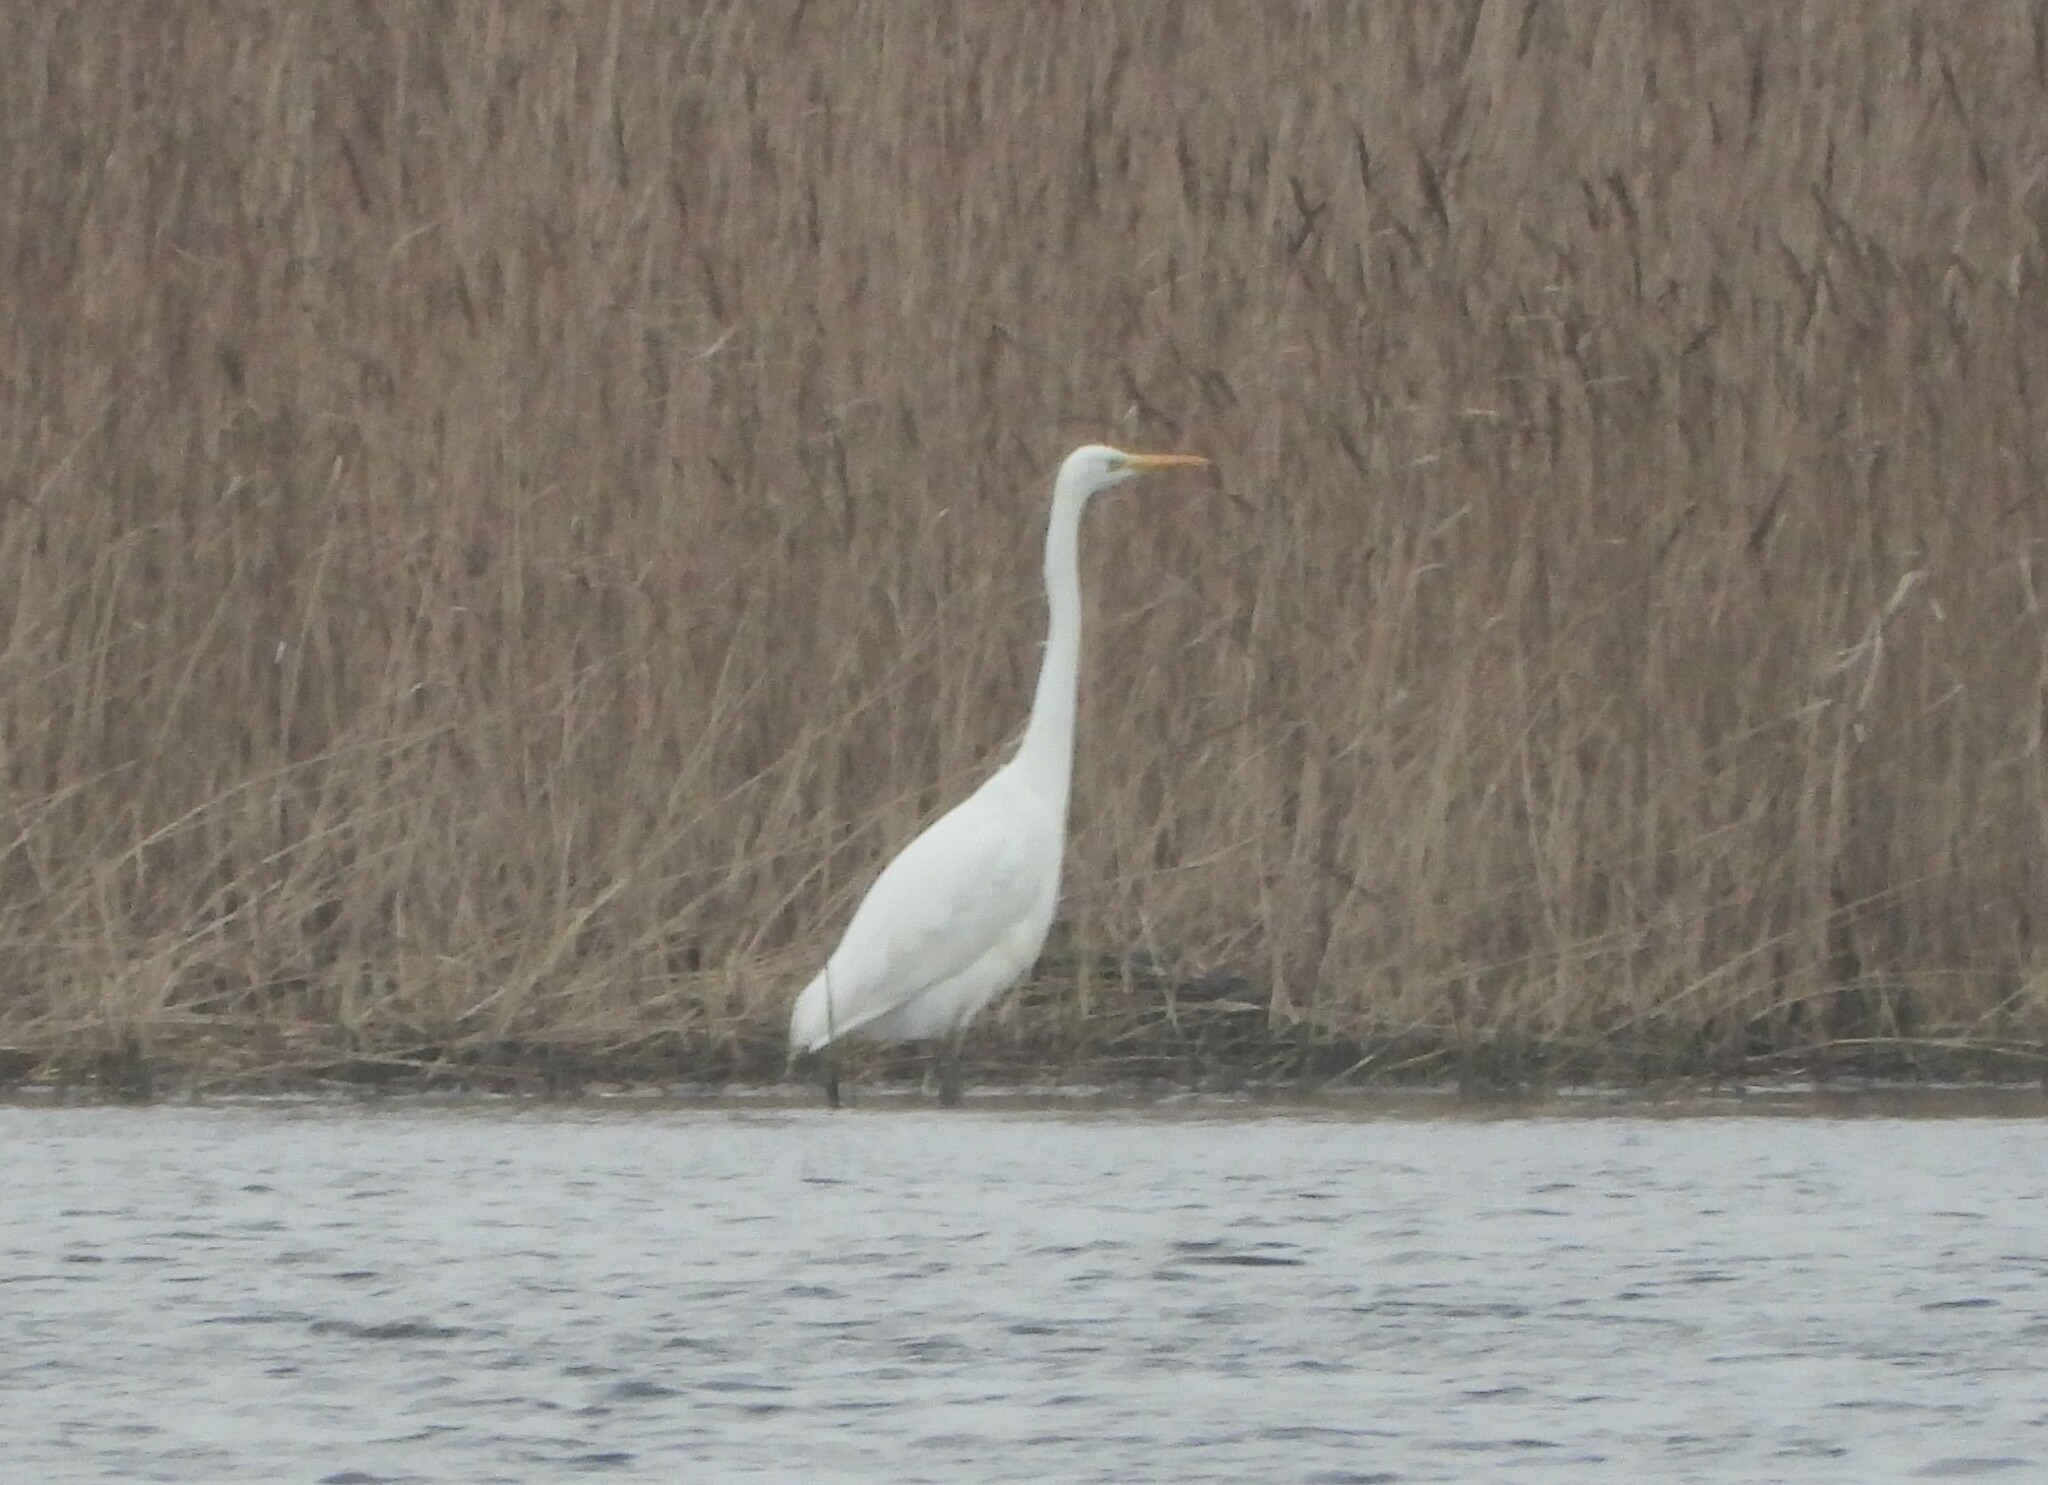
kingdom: Animalia
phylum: Chordata
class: Aves
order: Pelecaniformes
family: Ardeidae
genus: Ardea
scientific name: Ardea alba
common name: Great egret
